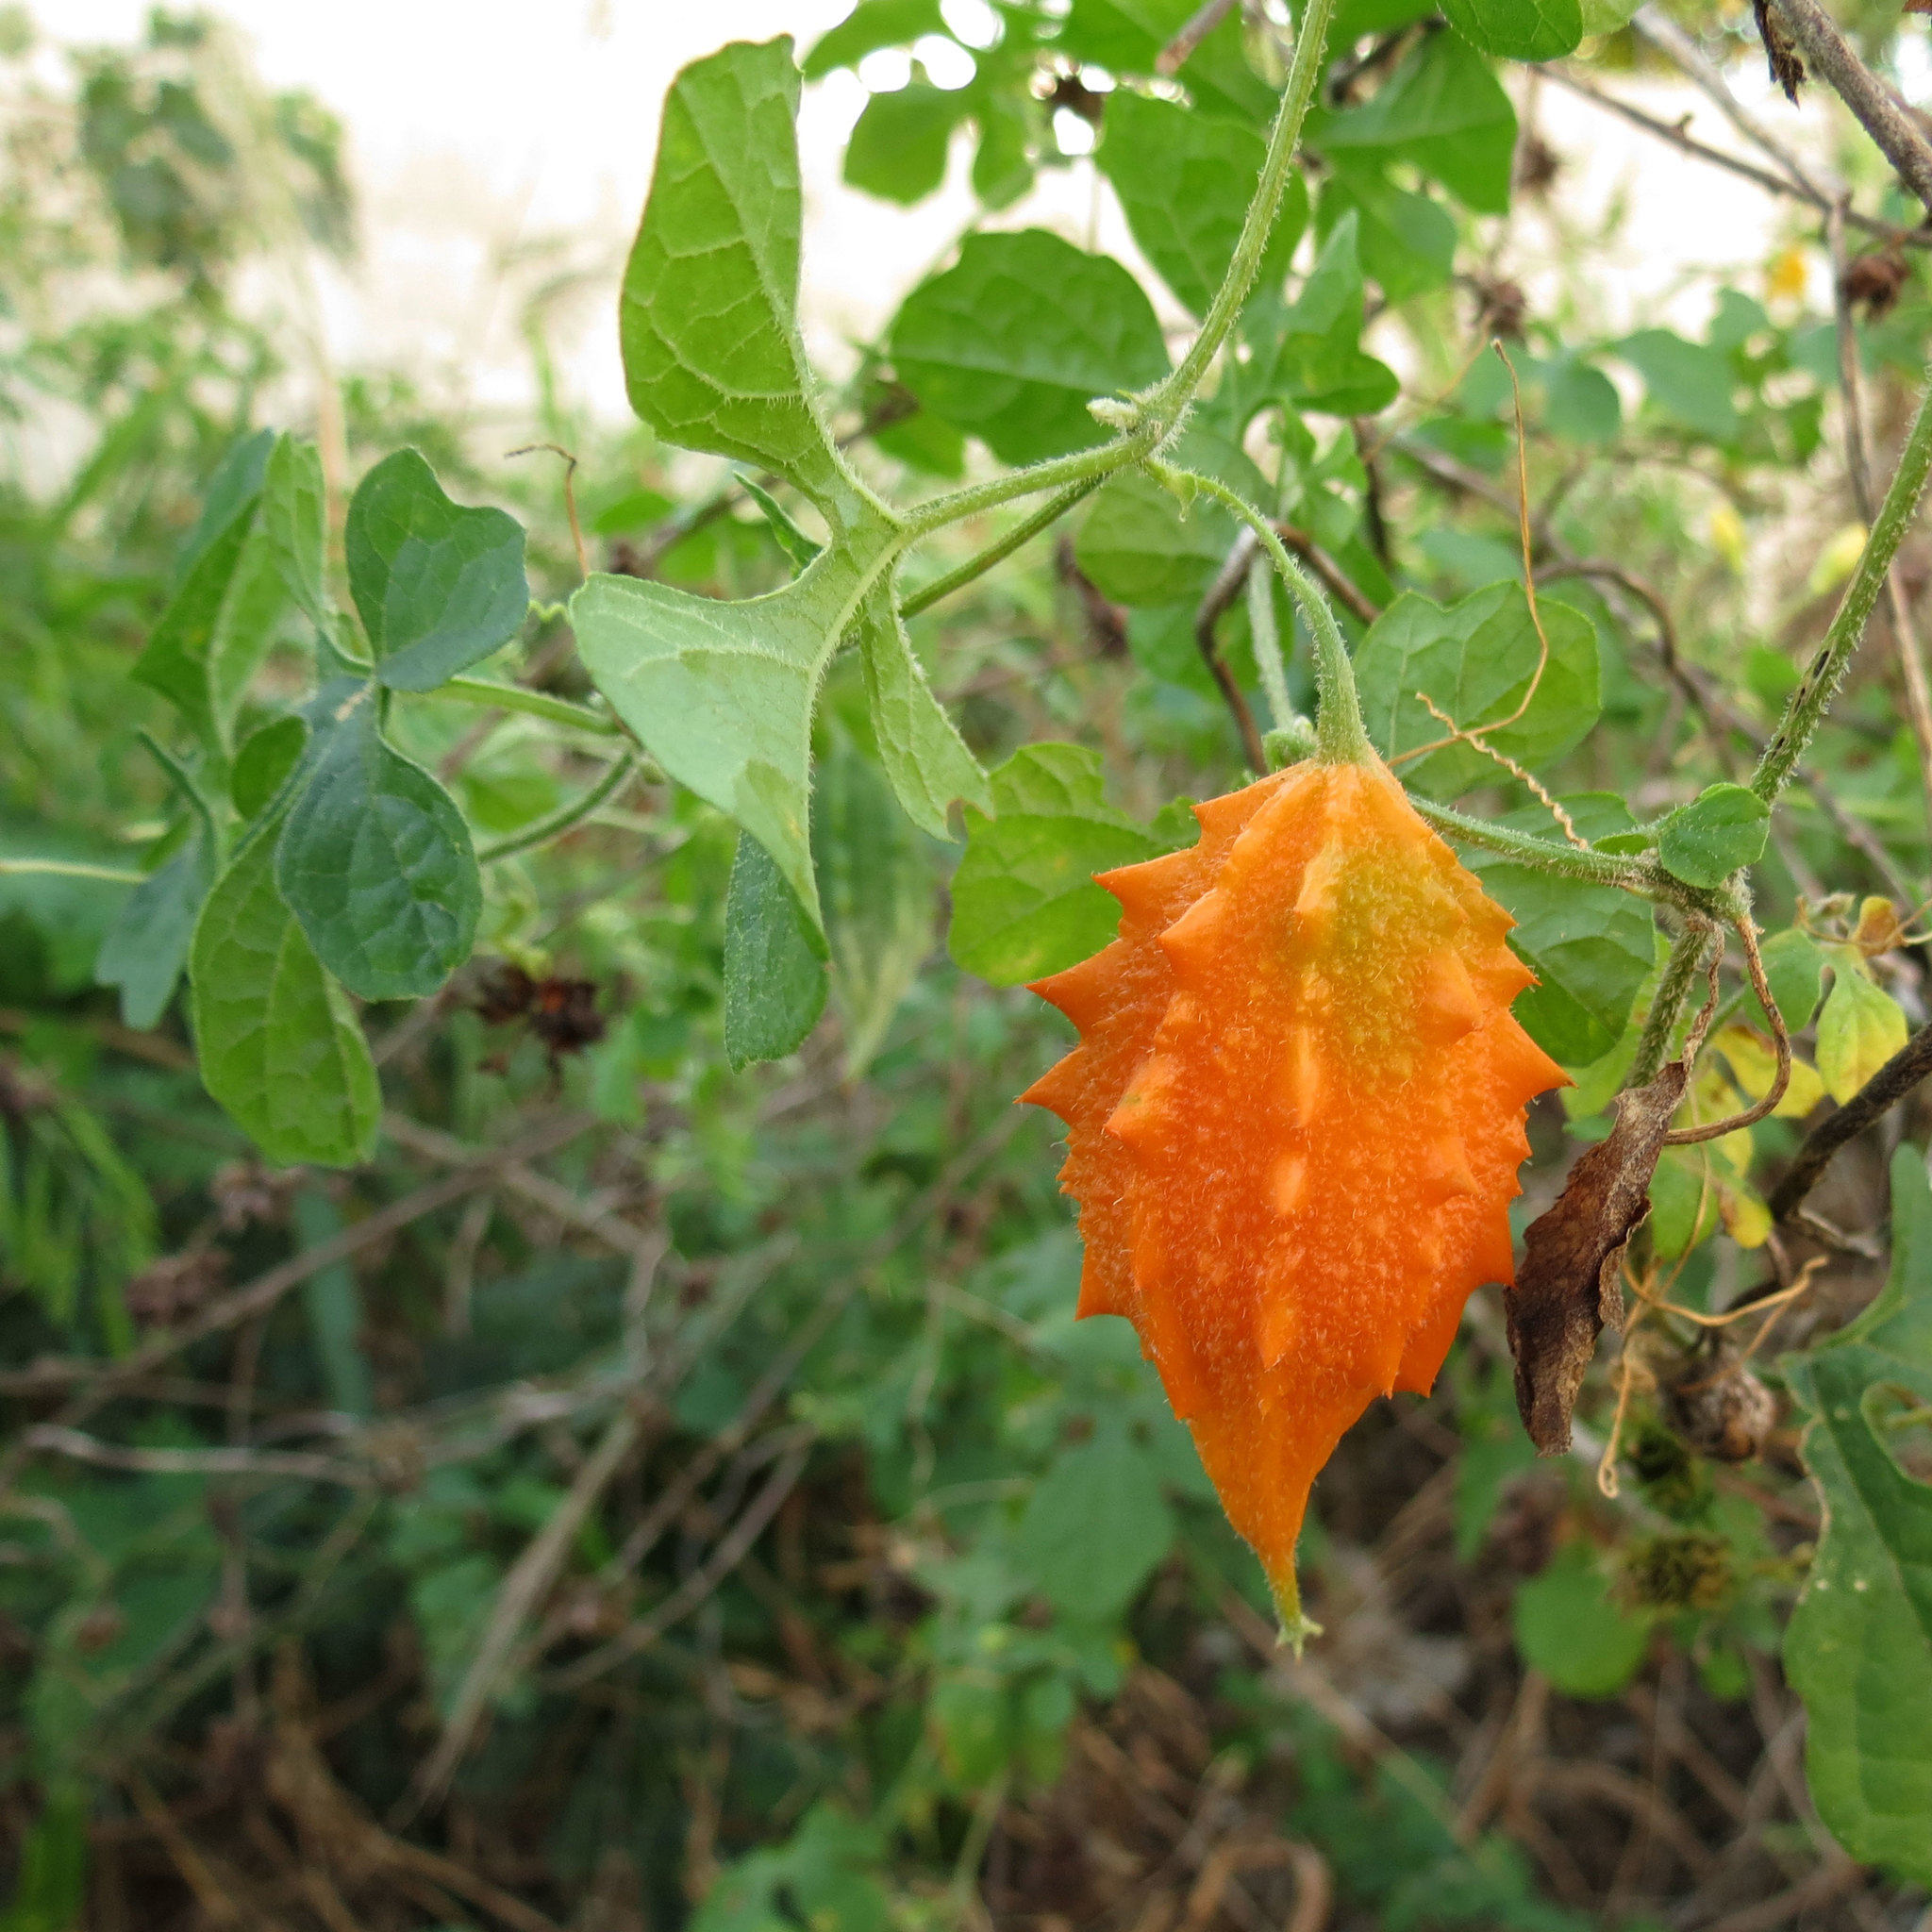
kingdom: Plantae
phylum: Tracheophyta
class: Magnoliopsida
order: Cucurbitales
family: Cucurbitaceae
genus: Momordica
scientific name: Momordica charantia
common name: Balsampear
